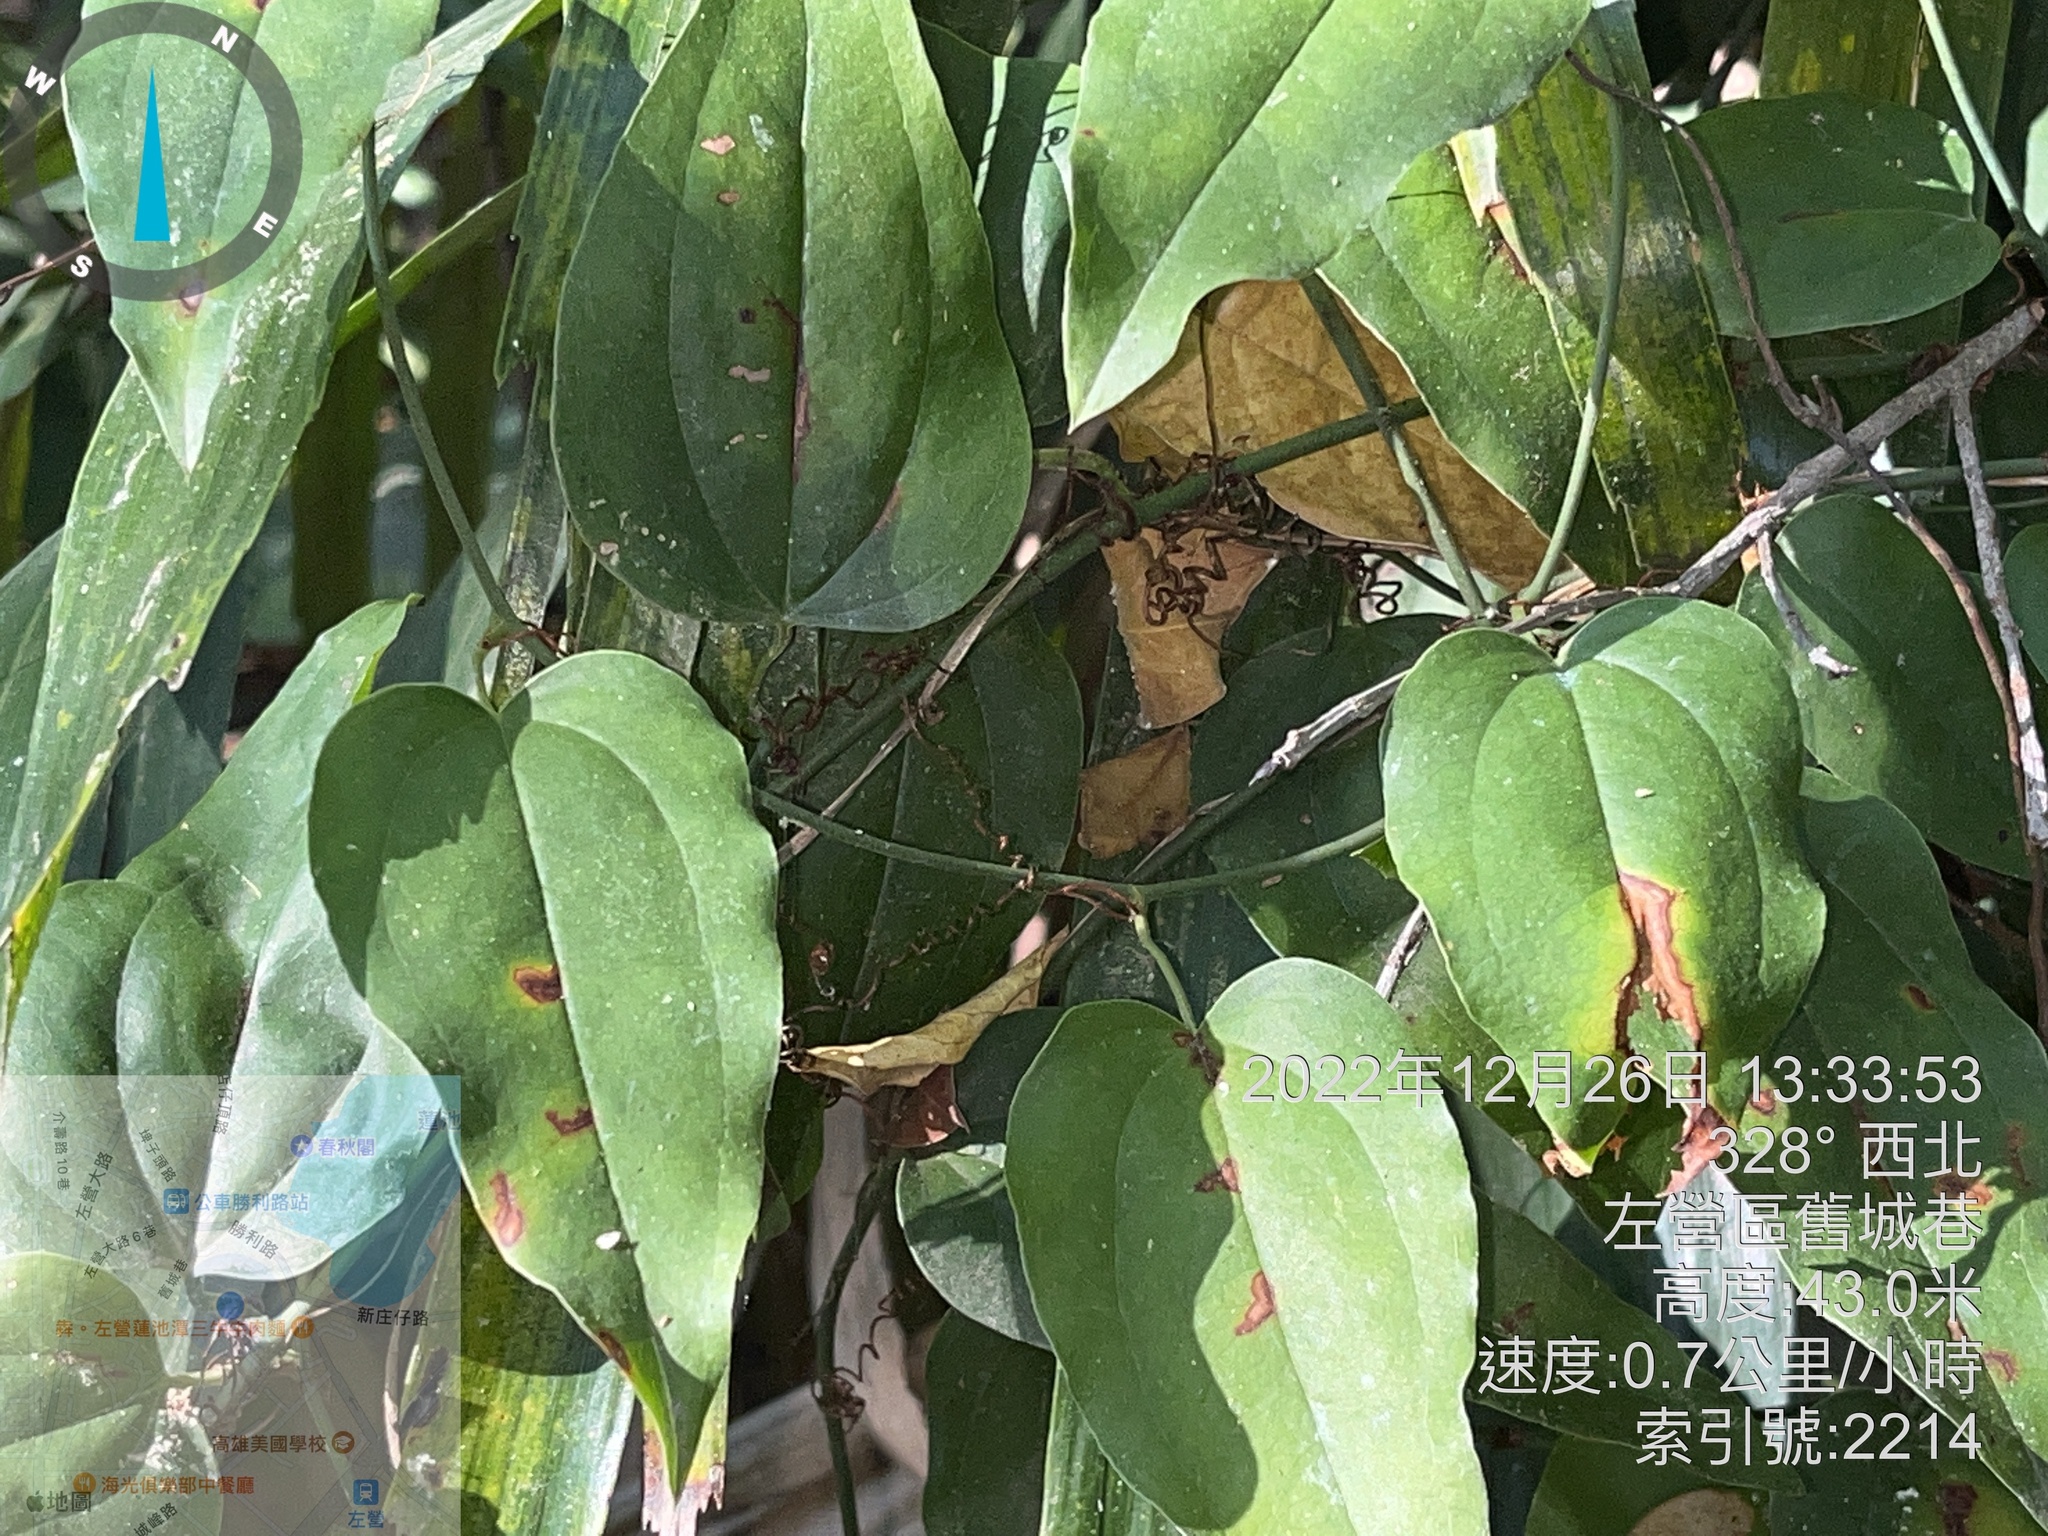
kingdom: Plantae
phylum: Tracheophyta
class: Liliopsida
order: Liliales
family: Smilacaceae
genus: Smilax
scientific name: Smilax china
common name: Chinaroot
